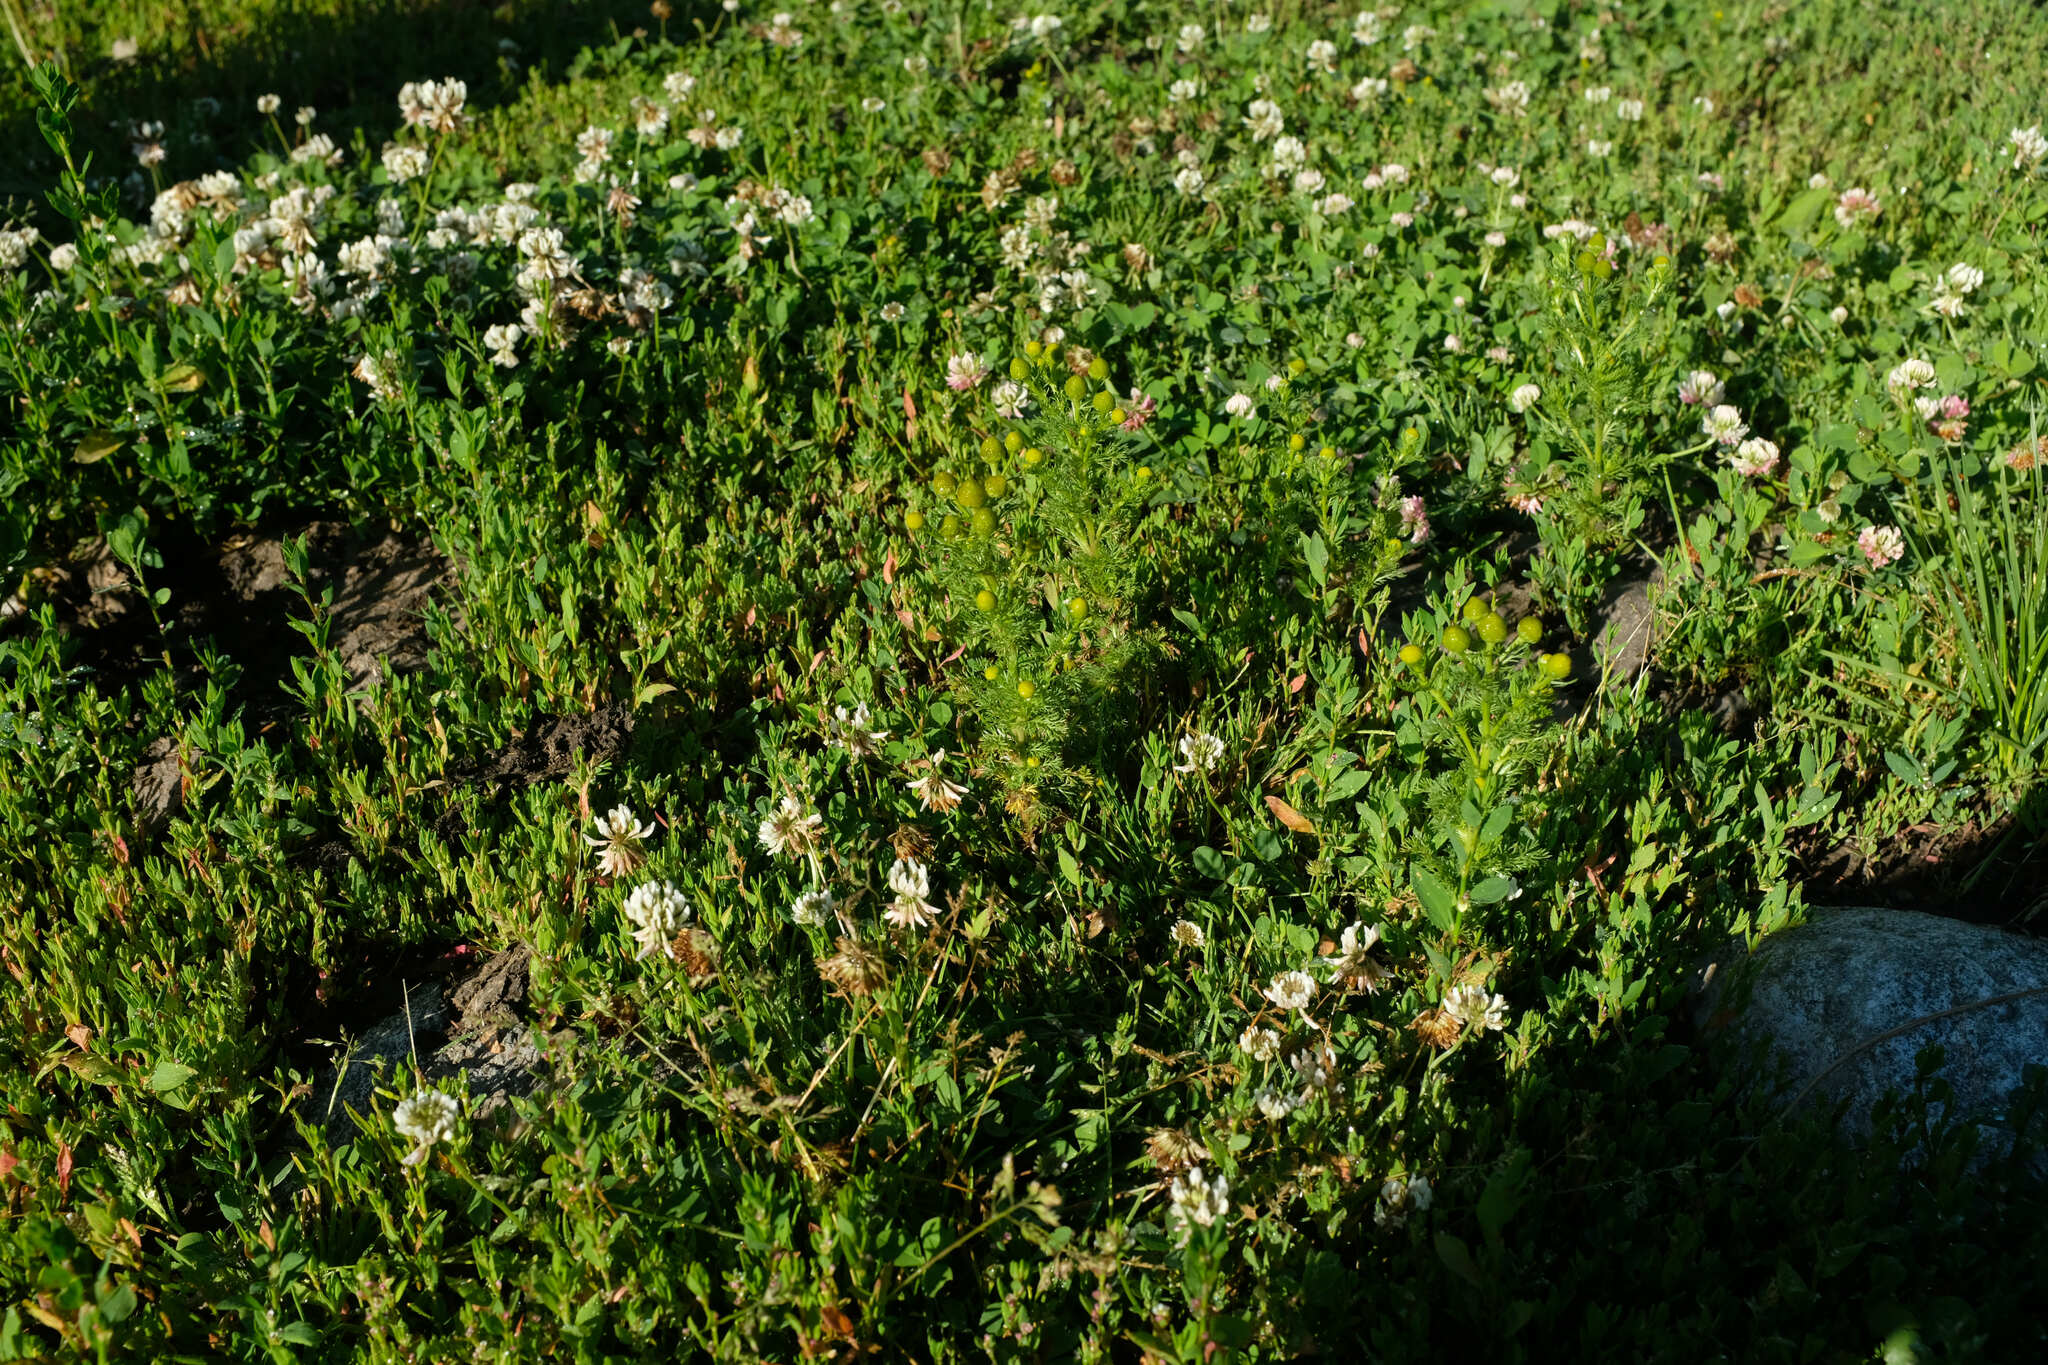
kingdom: Plantae
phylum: Tracheophyta
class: Magnoliopsida
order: Asterales
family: Asteraceae
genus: Matricaria
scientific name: Matricaria discoidea
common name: Disc mayweed
